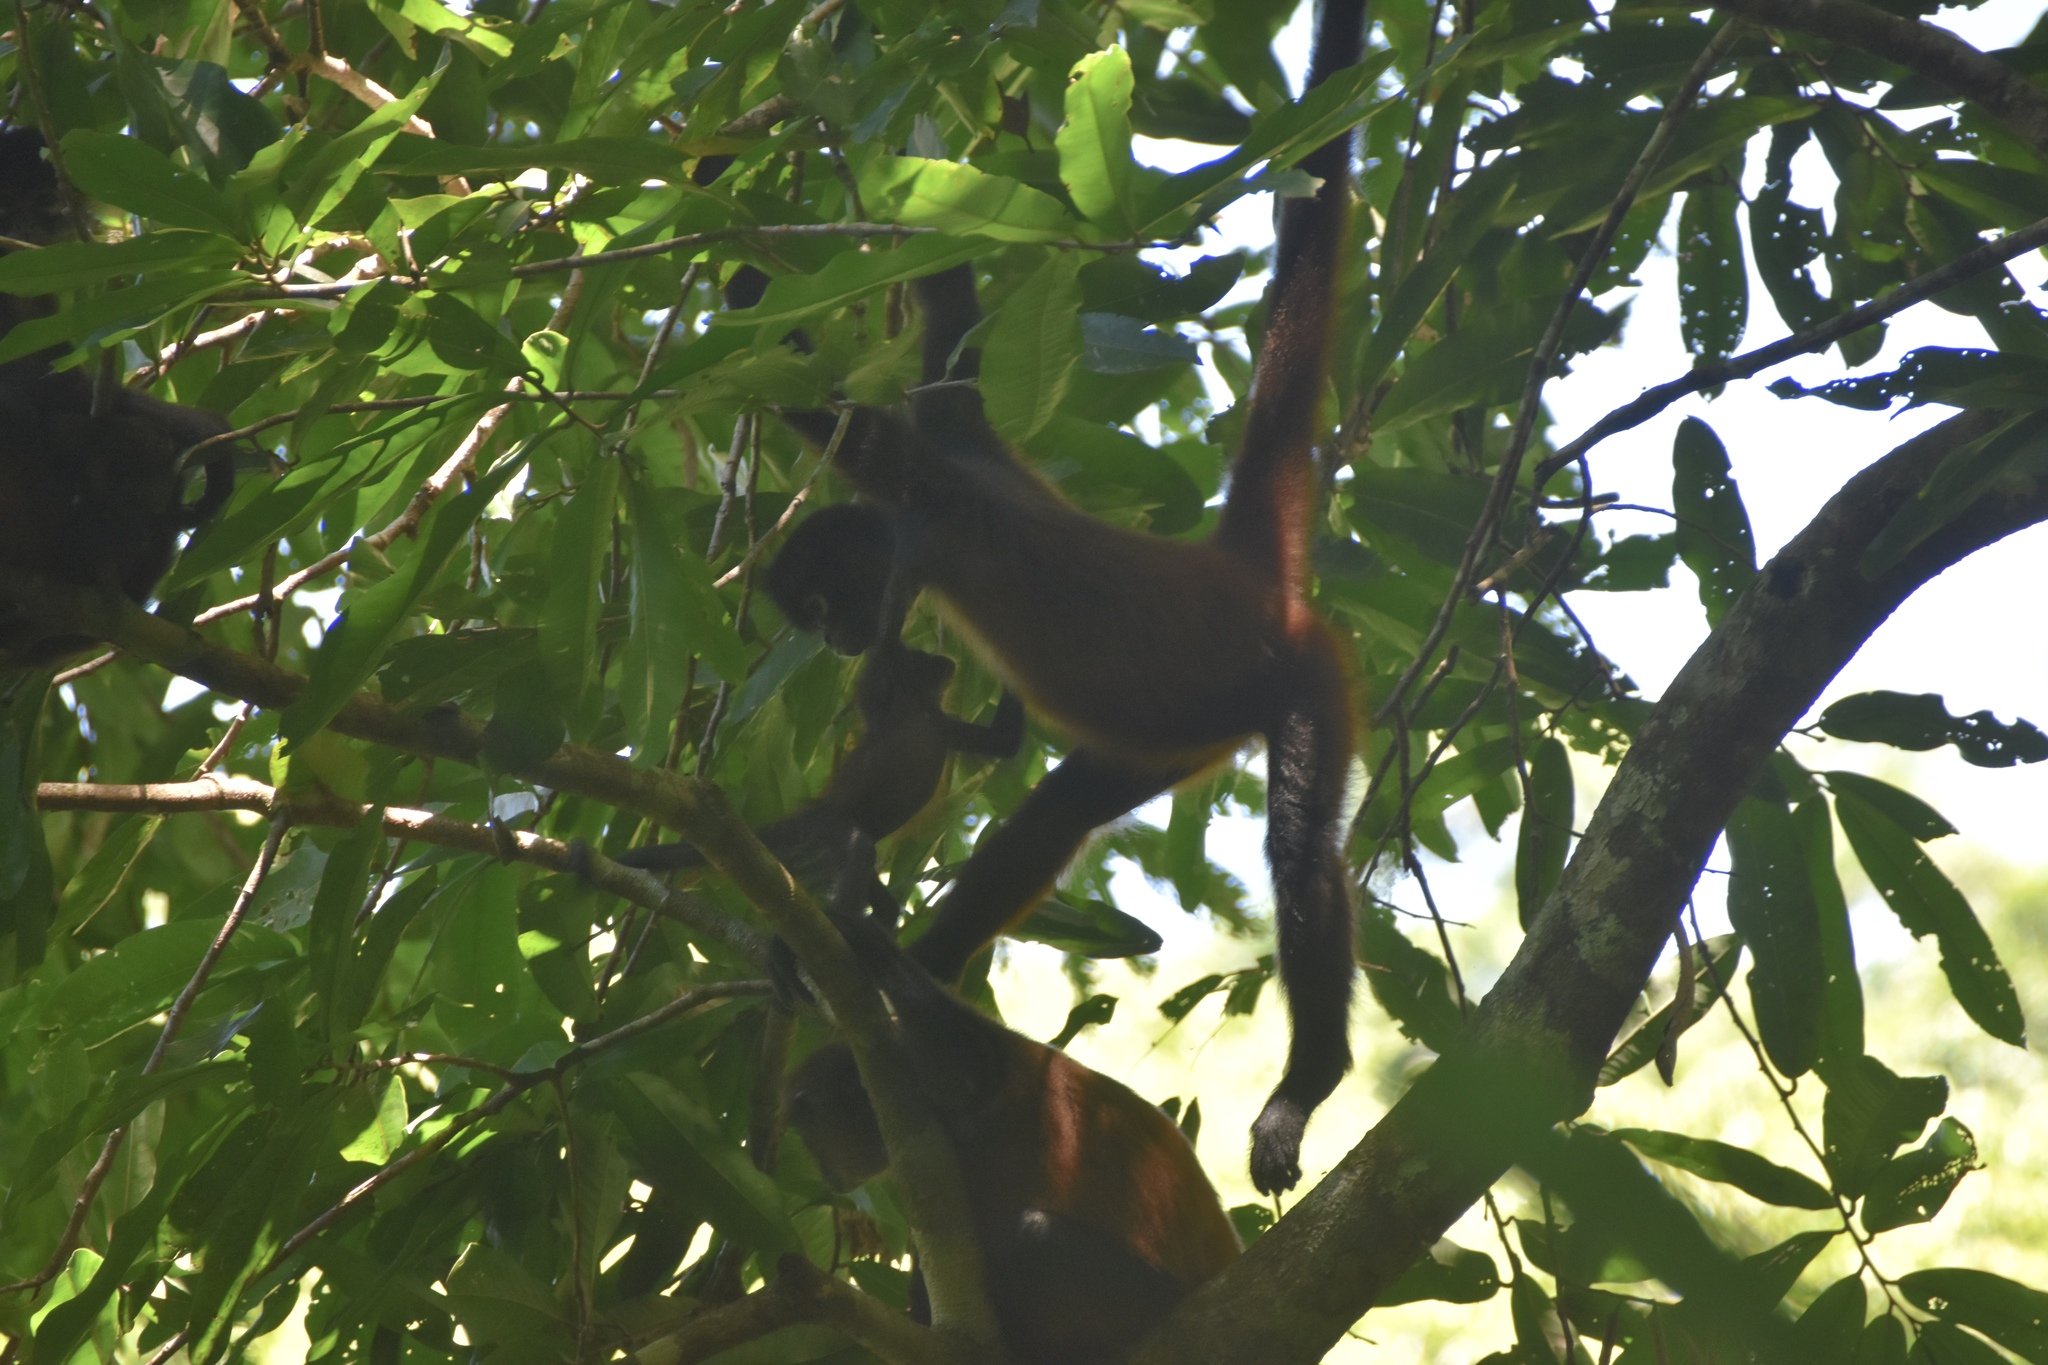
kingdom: Animalia
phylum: Chordata
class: Mammalia
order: Primates
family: Atelidae
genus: Ateles
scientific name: Ateles geoffroyi
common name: Black-handed spider monkey
